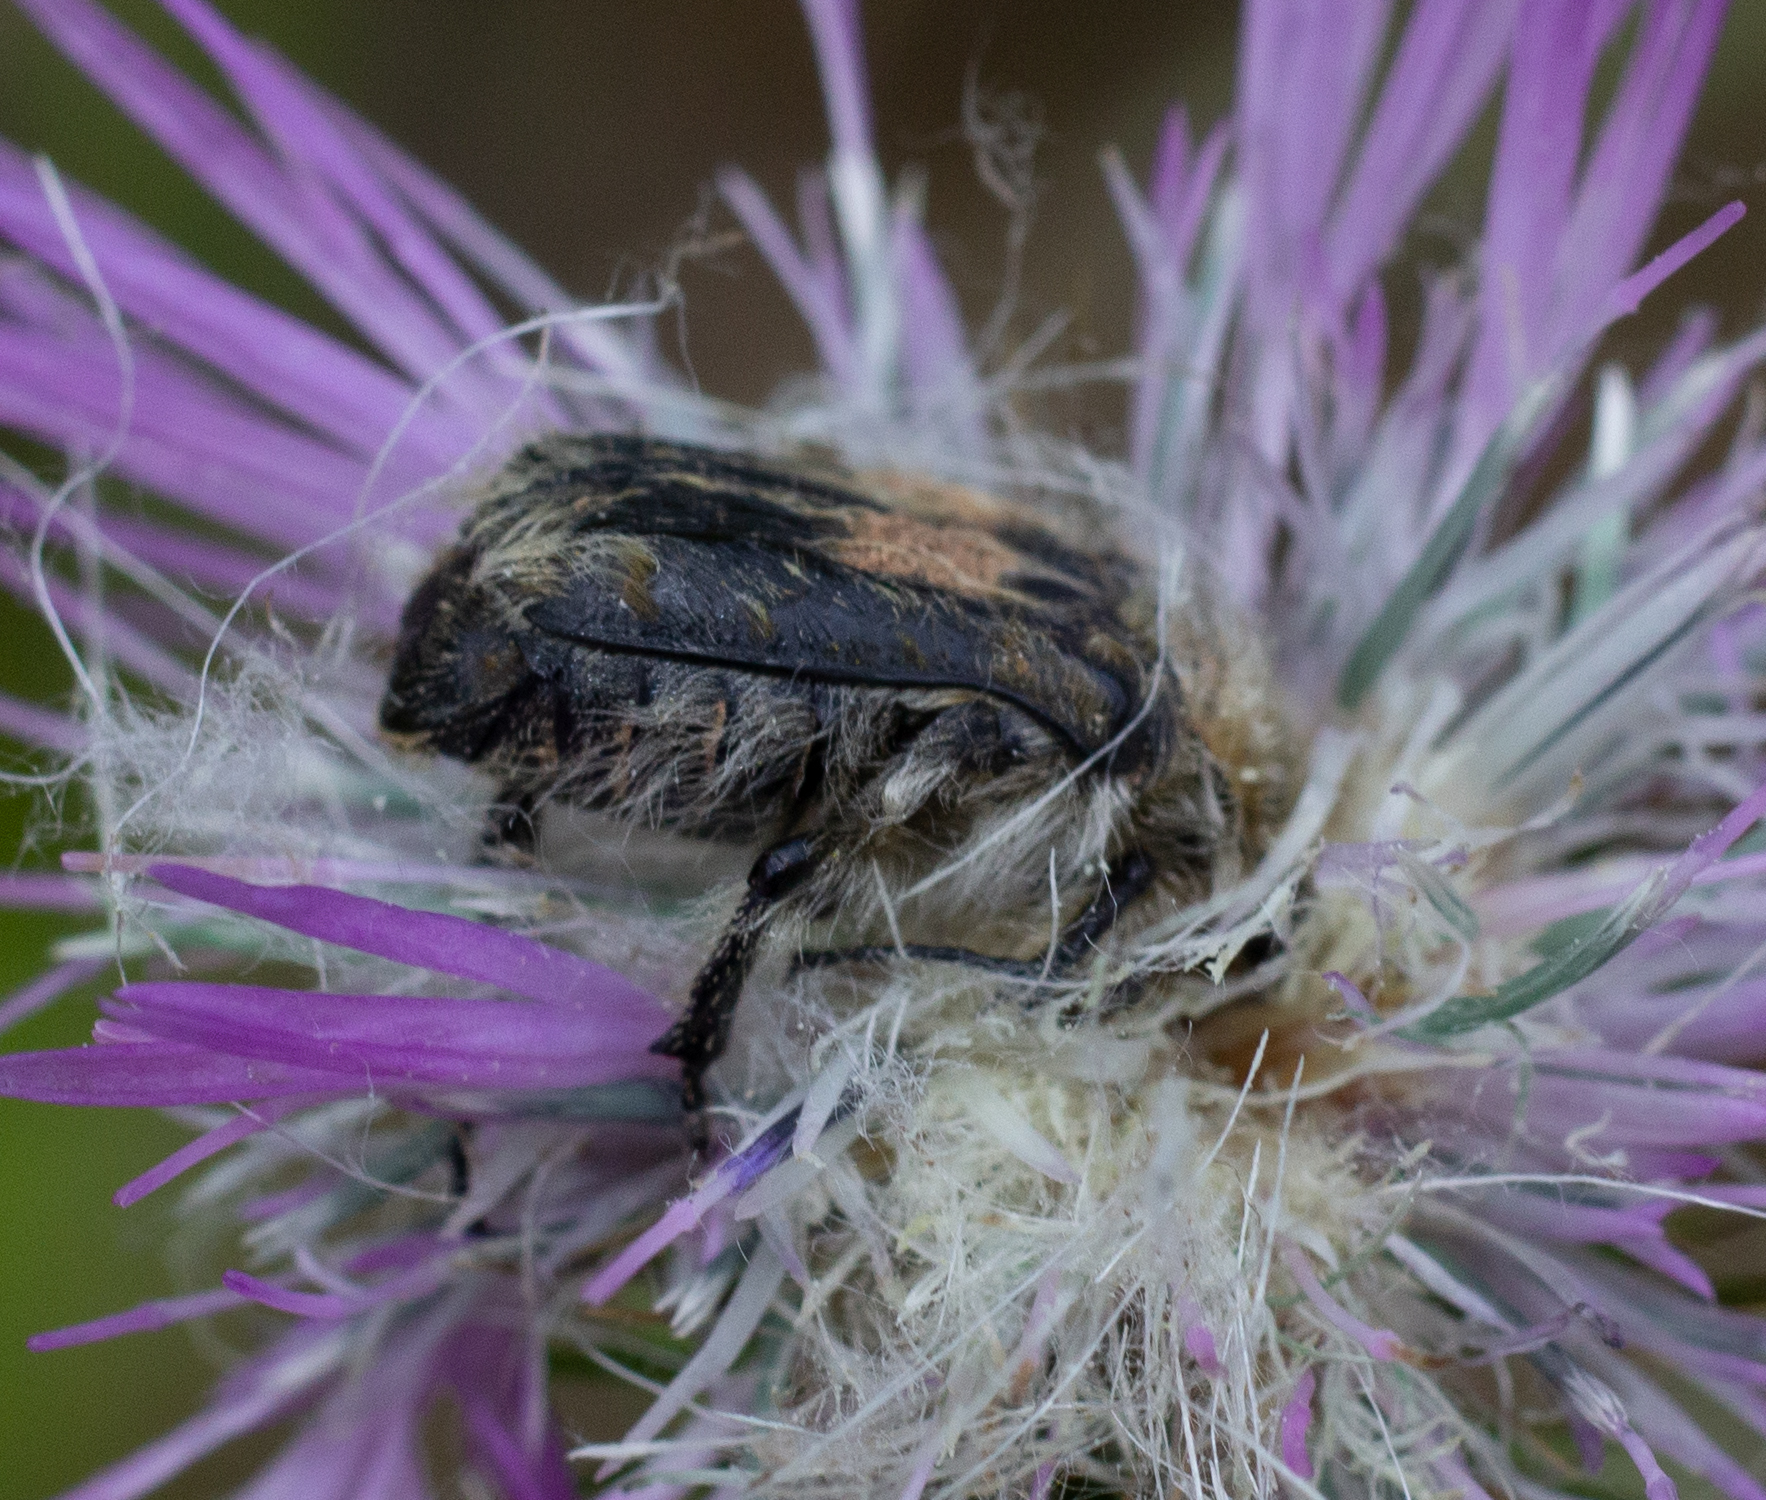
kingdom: Animalia
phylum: Arthropoda
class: Insecta
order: Coleoptera
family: Scarabaeidae
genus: Tropinota
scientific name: Tropinota squalida
